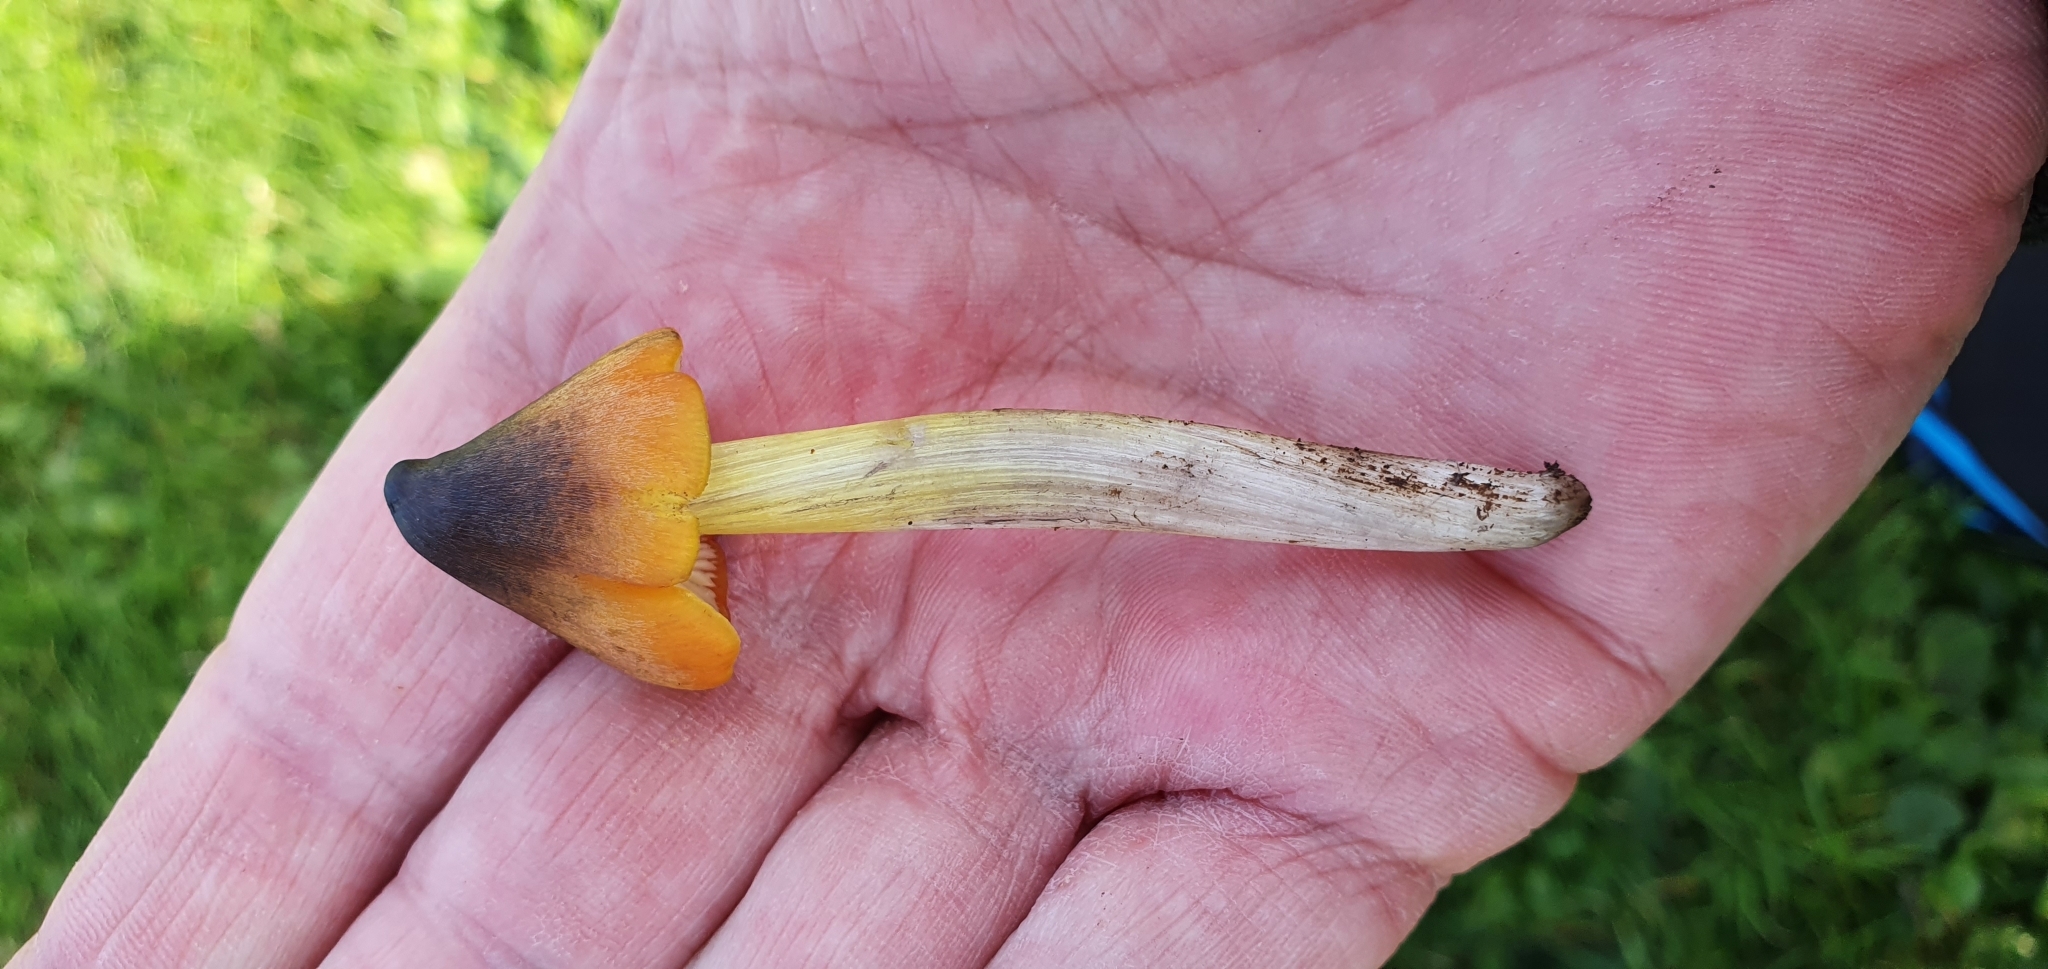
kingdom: Fungi
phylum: Basidiomycota
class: Agaricomycetes
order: Agaricales
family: Hygrophoraceae
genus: Hygrocybe
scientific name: Hygrocybe conica
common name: Blackening wax-cap
